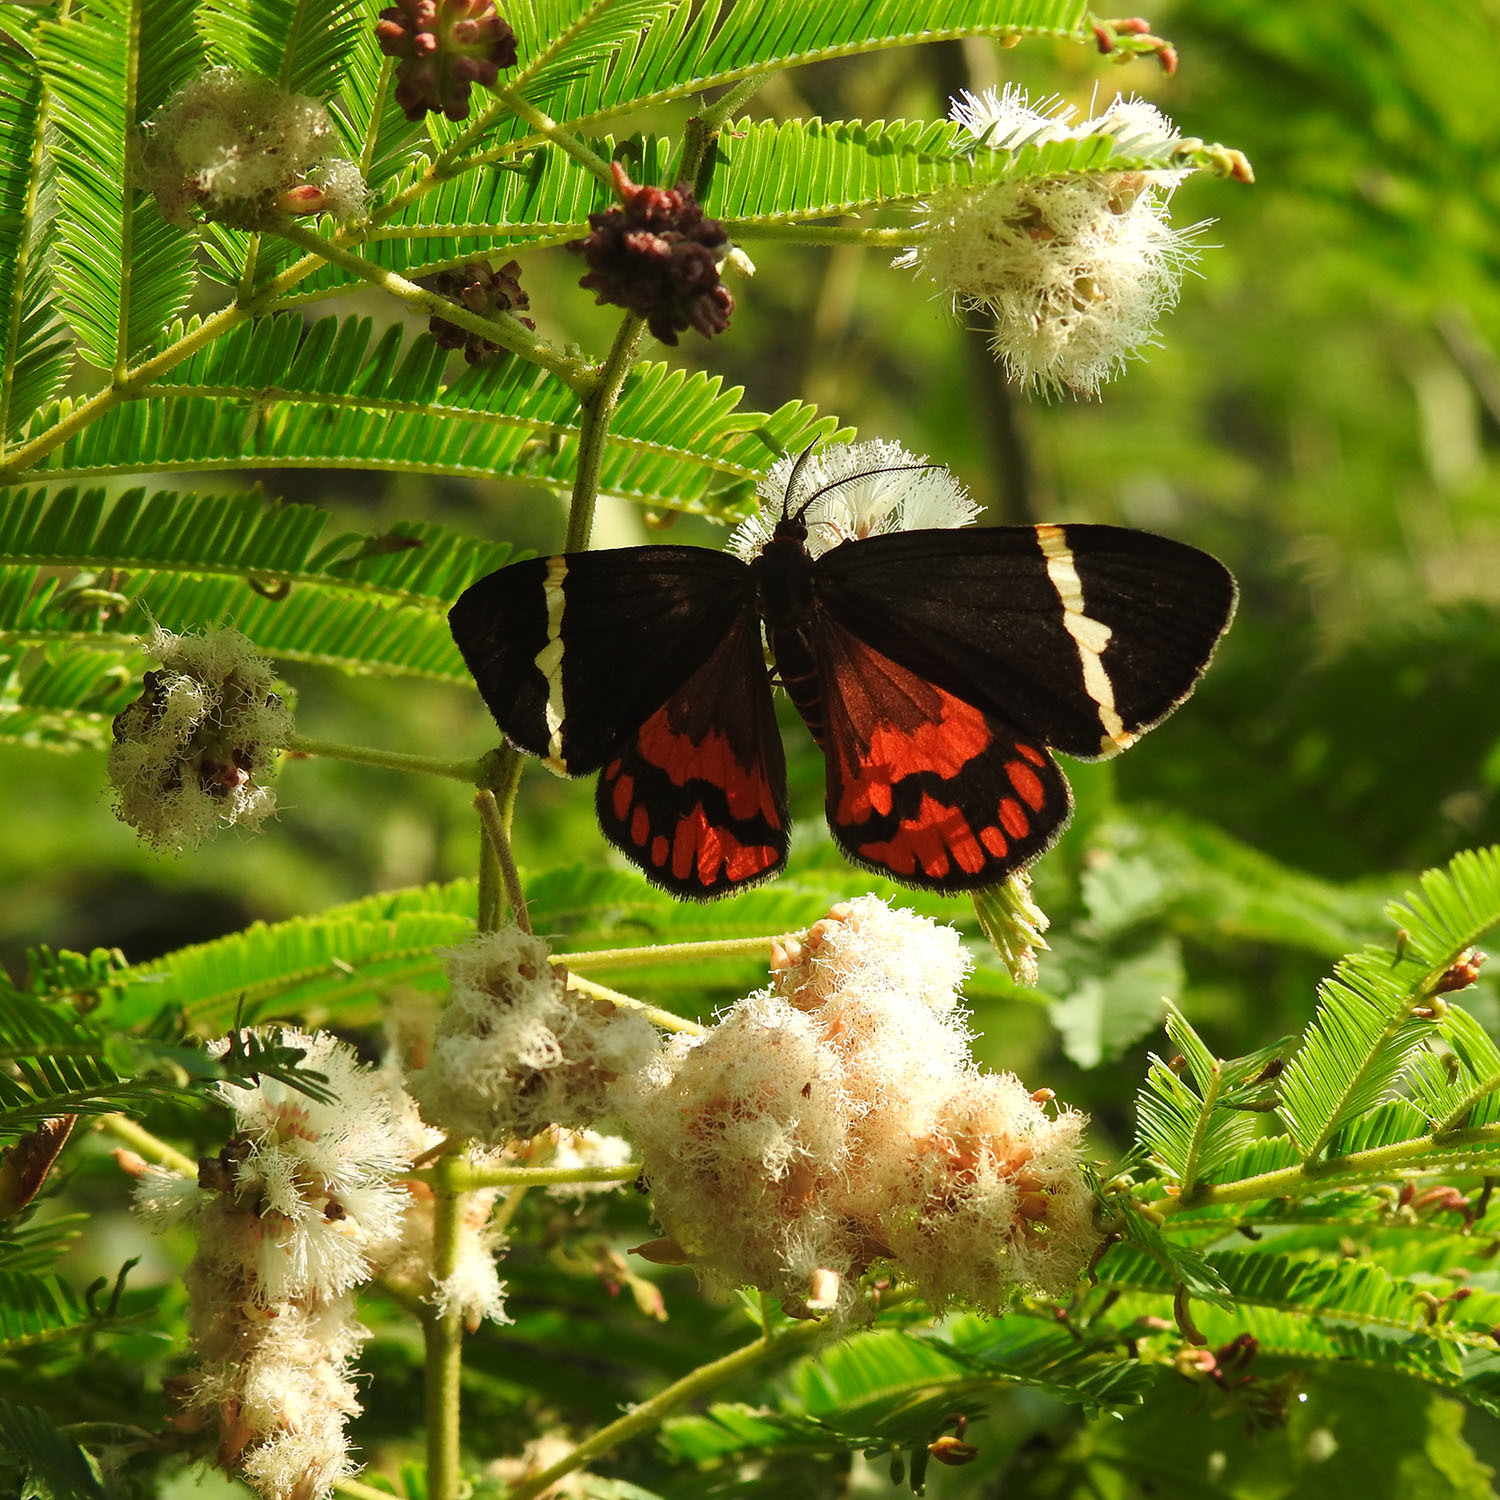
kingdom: Animalia
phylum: Arthropoda
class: Insecta
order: Lepidoptera
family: Erebidae
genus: Curoba
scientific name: Curoba sangarida
